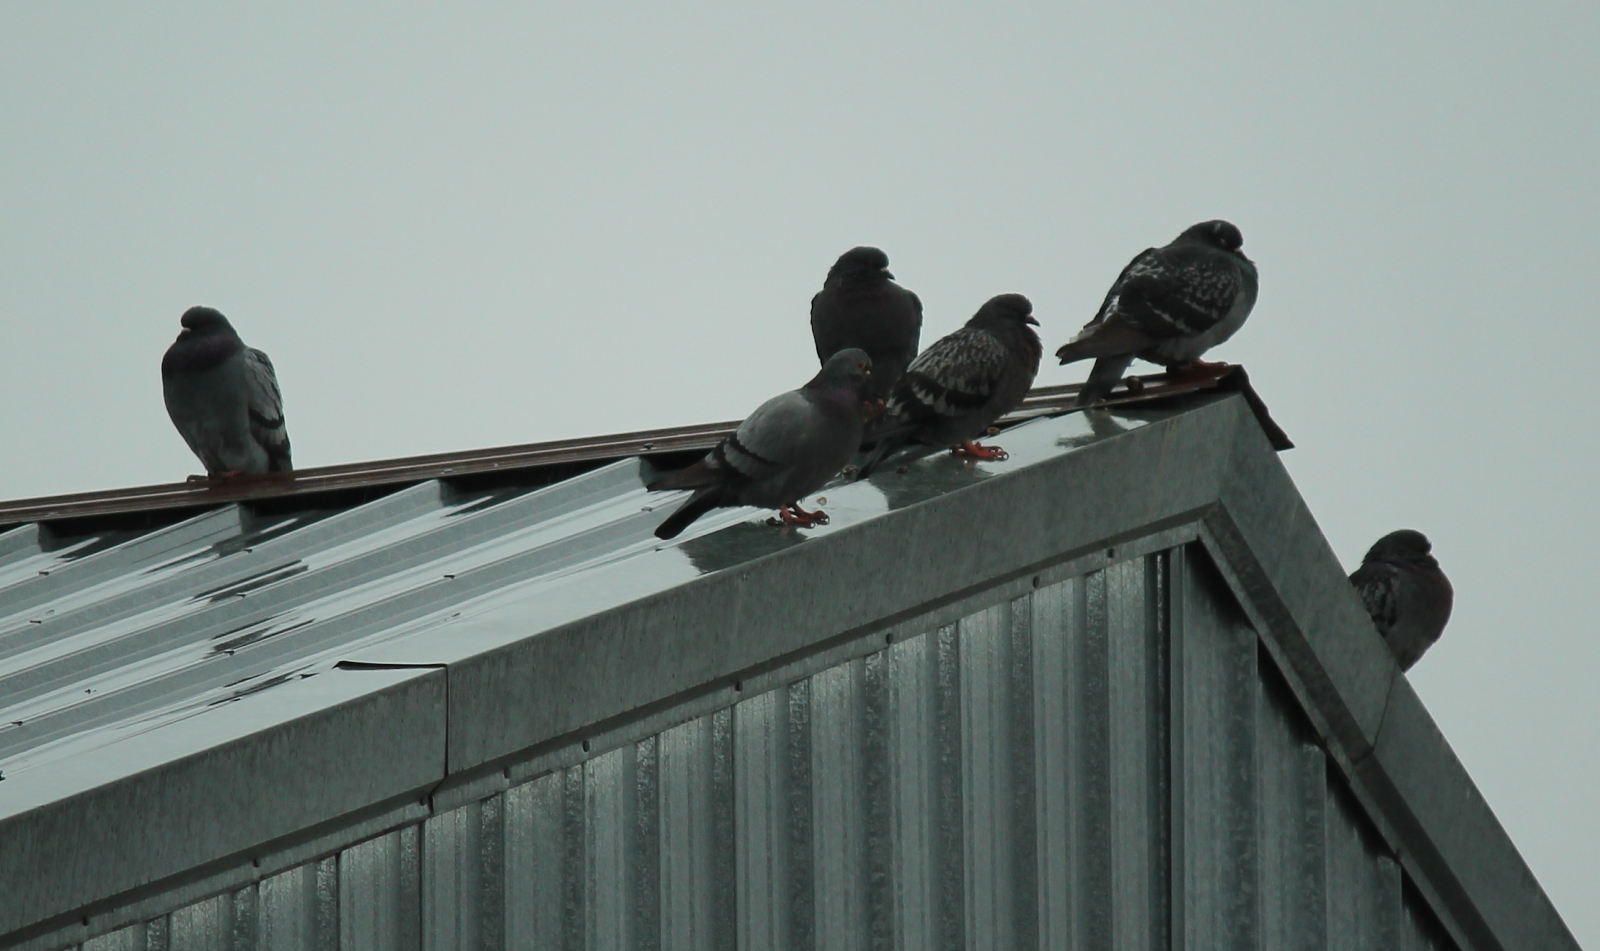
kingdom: Animalia
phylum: Chordata
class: Aves
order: Columbiformes
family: Columbidae
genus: Columba
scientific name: Columba livia
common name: Rock pigeon
